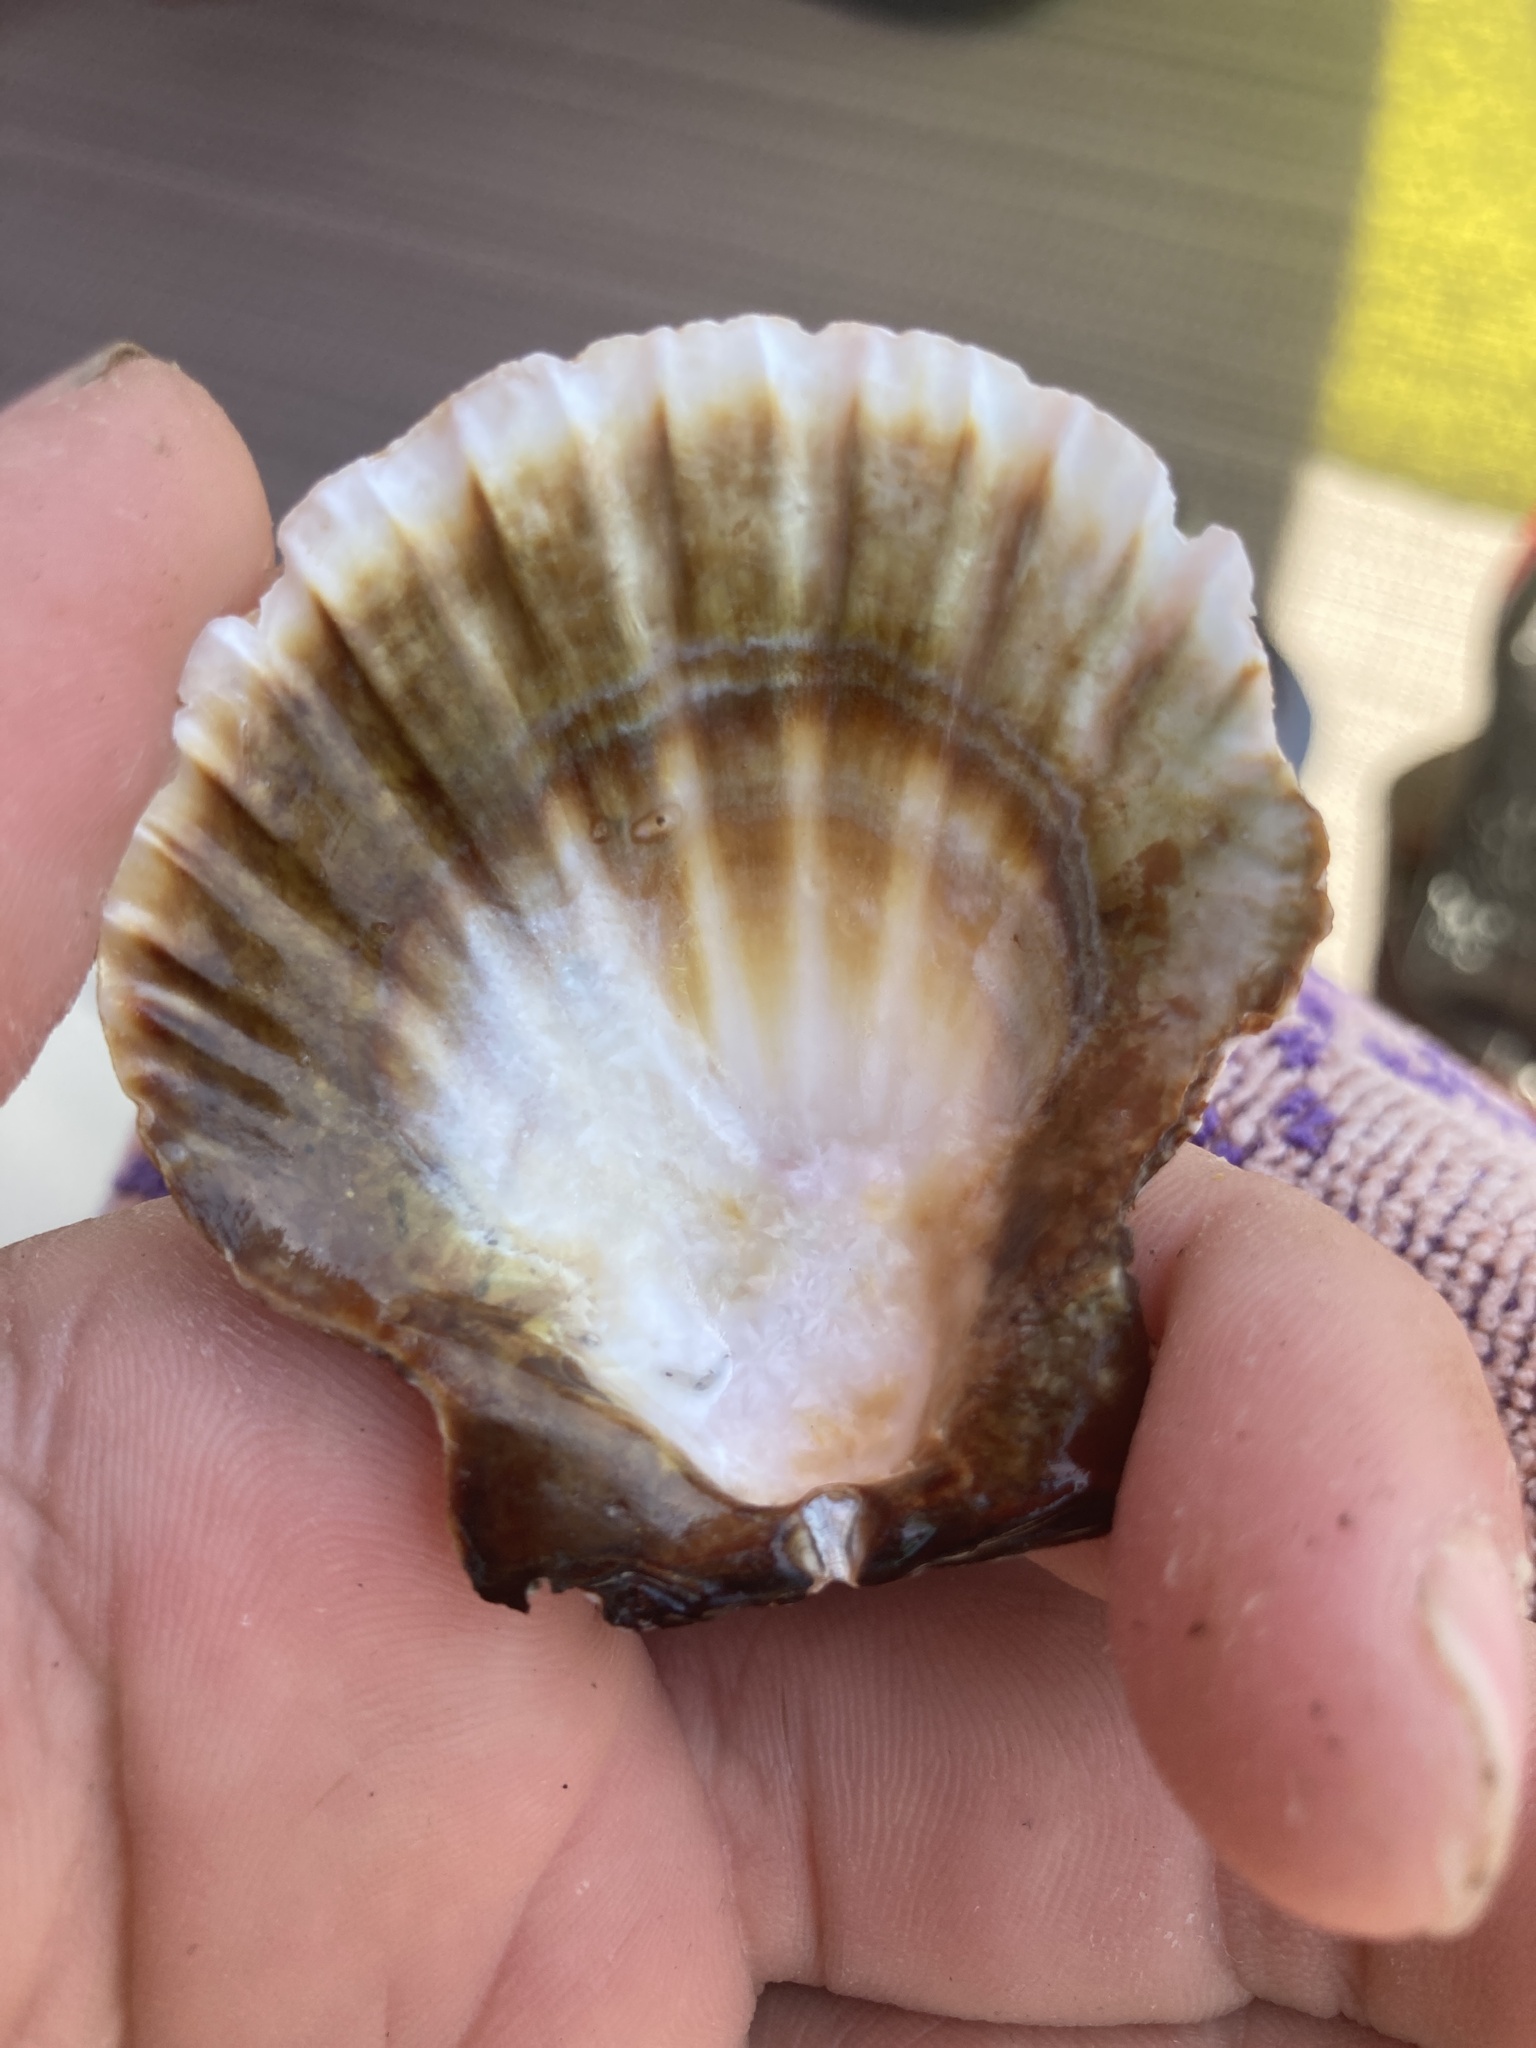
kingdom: Animalia
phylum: Mollusca
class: Bivalvia
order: Pectinida
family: Pectinidae
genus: Nodipecten
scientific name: Nodipecten fragosus
